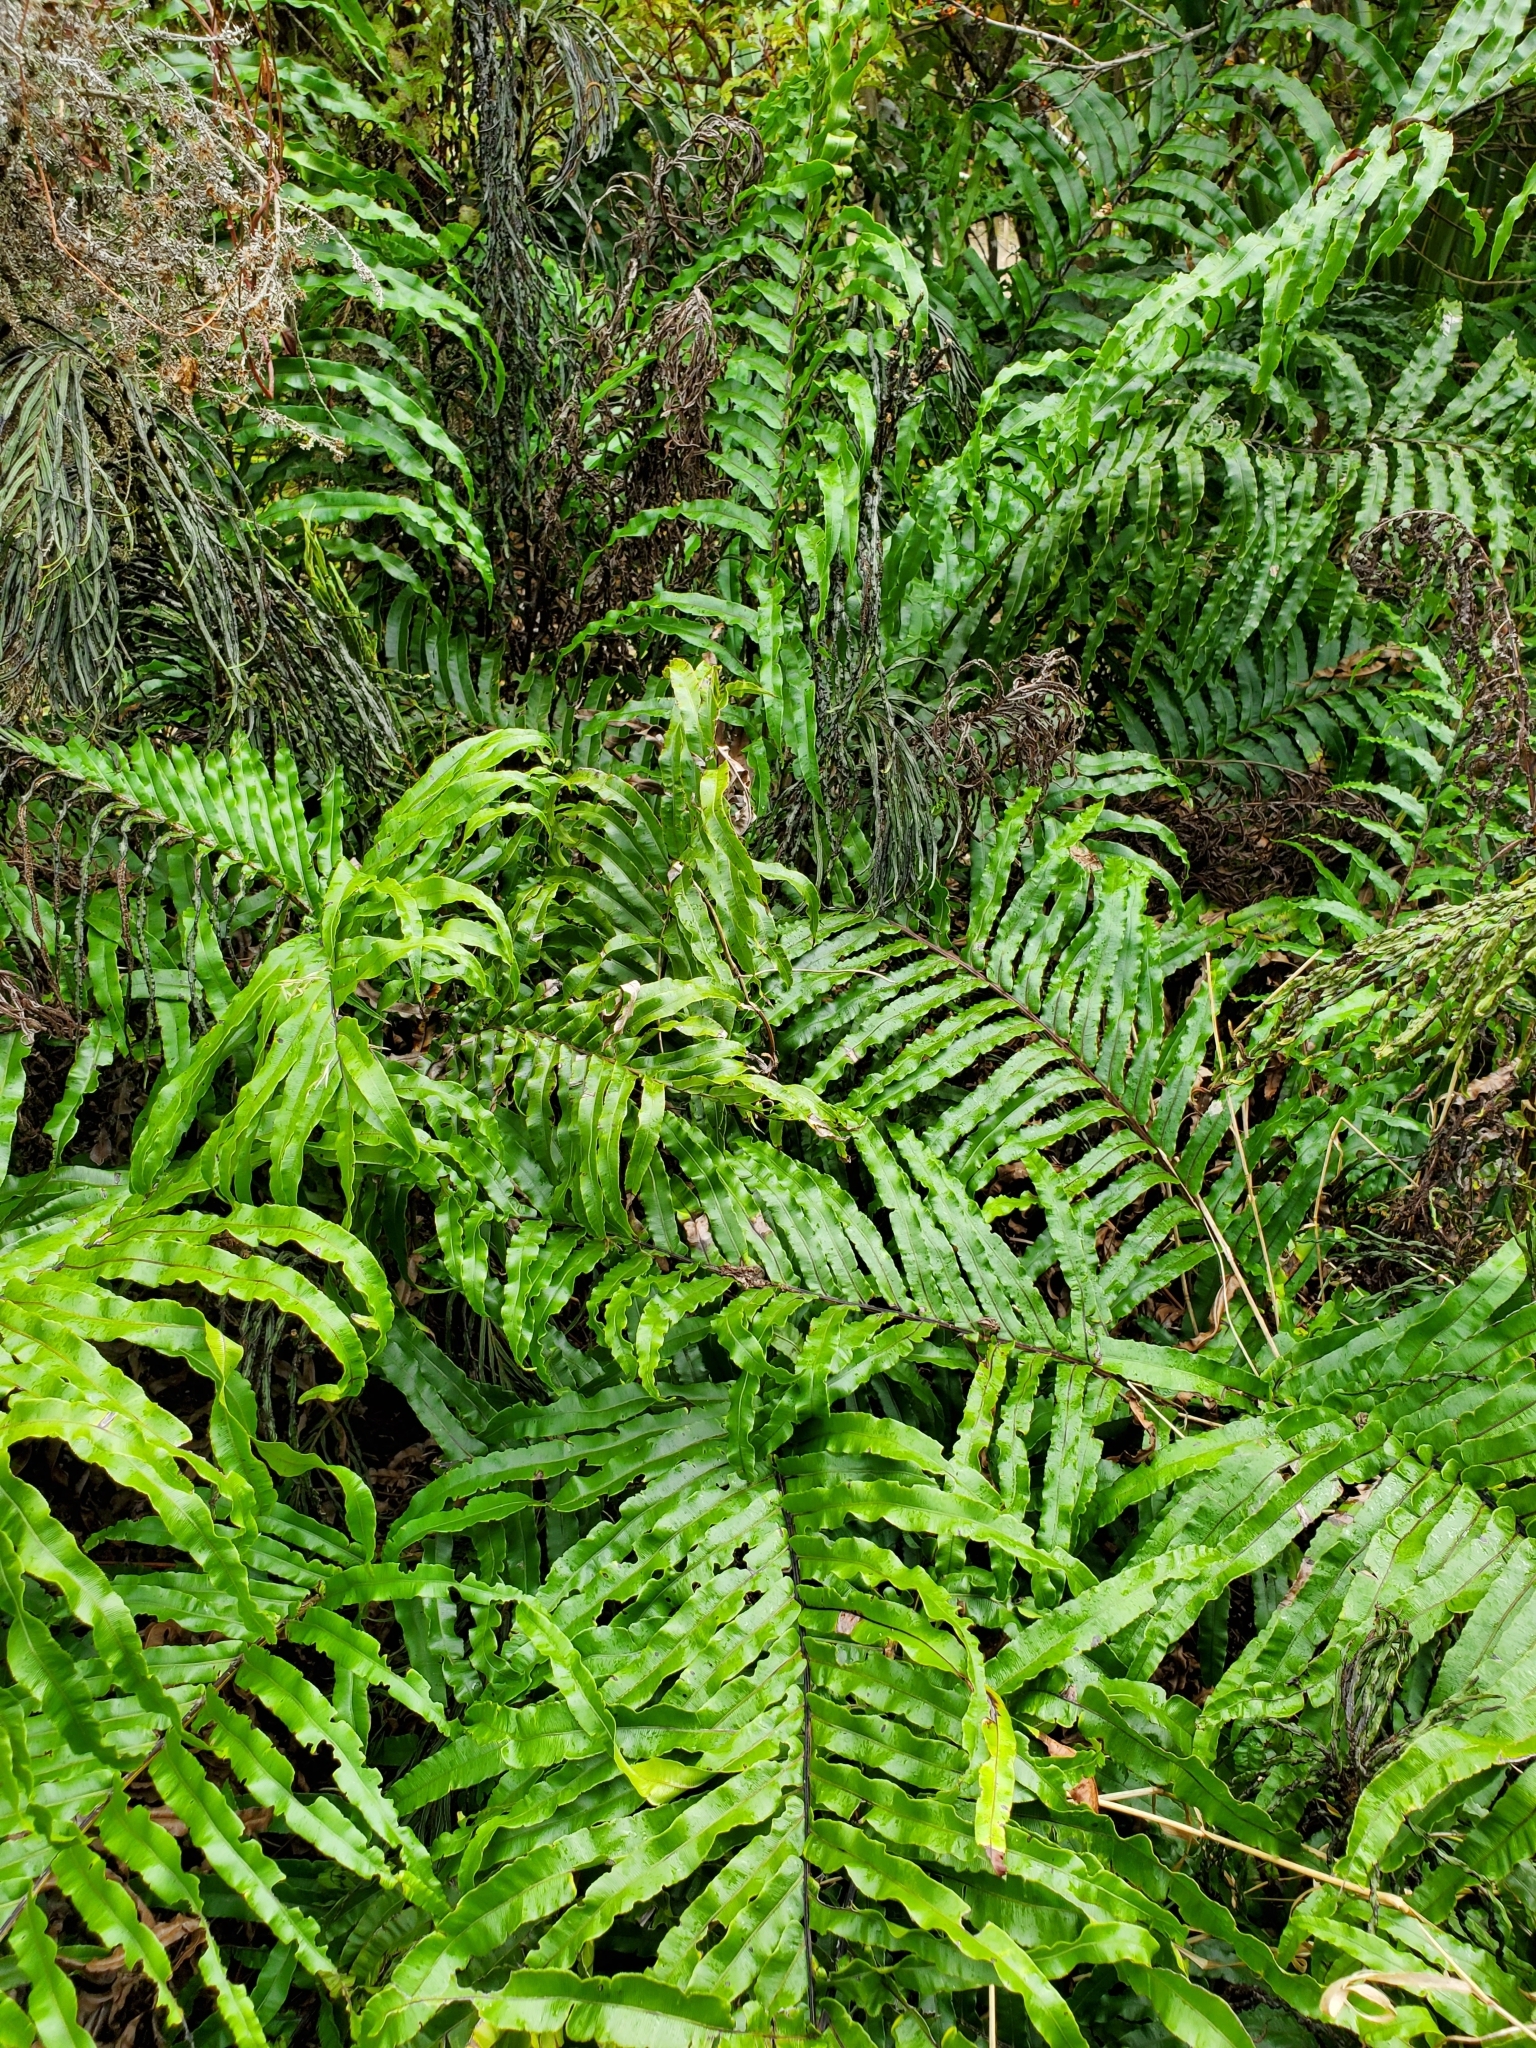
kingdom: Plantae
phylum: Tracheophyta
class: Polypodiopsida
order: Polypodiales
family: Blechnaceae
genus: Parablechnum
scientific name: Parablechnum novae-zelandiae
